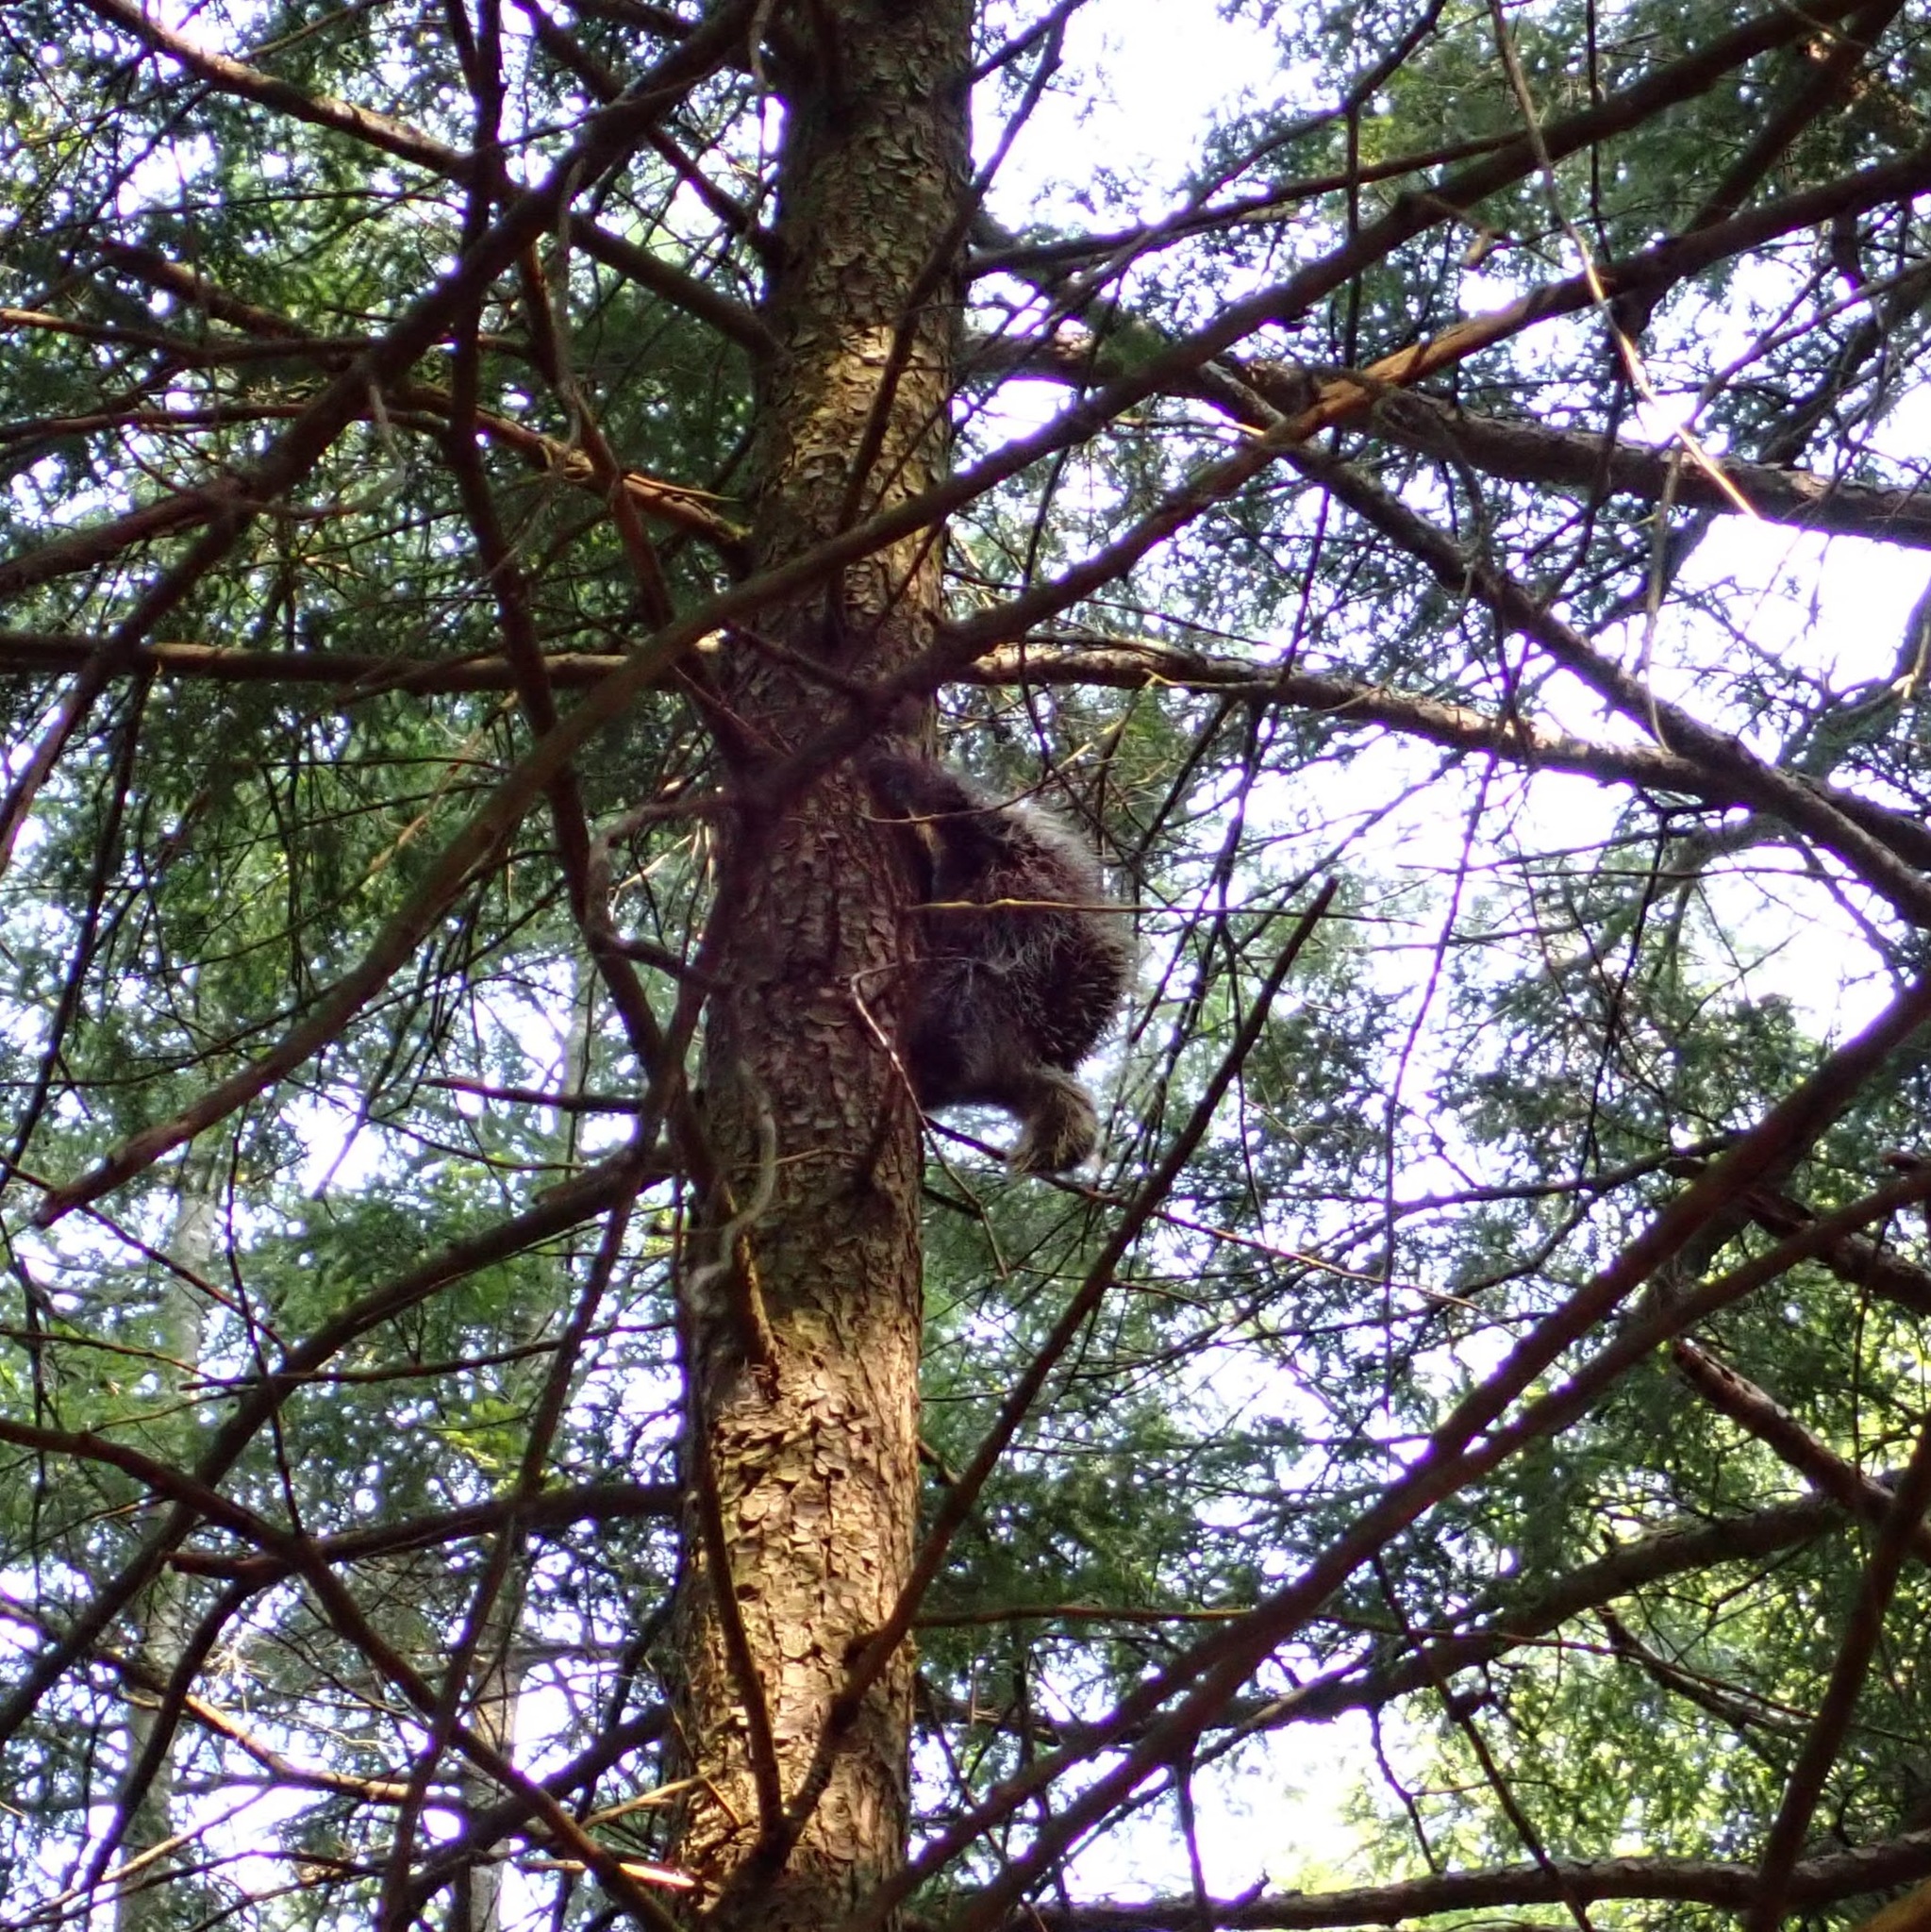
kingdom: Animalia
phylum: Chordata
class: Mammalia
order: Rodentia
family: Erethizontidae
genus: Erethizon
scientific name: Erethizon dorsatus
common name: North american porcupine
